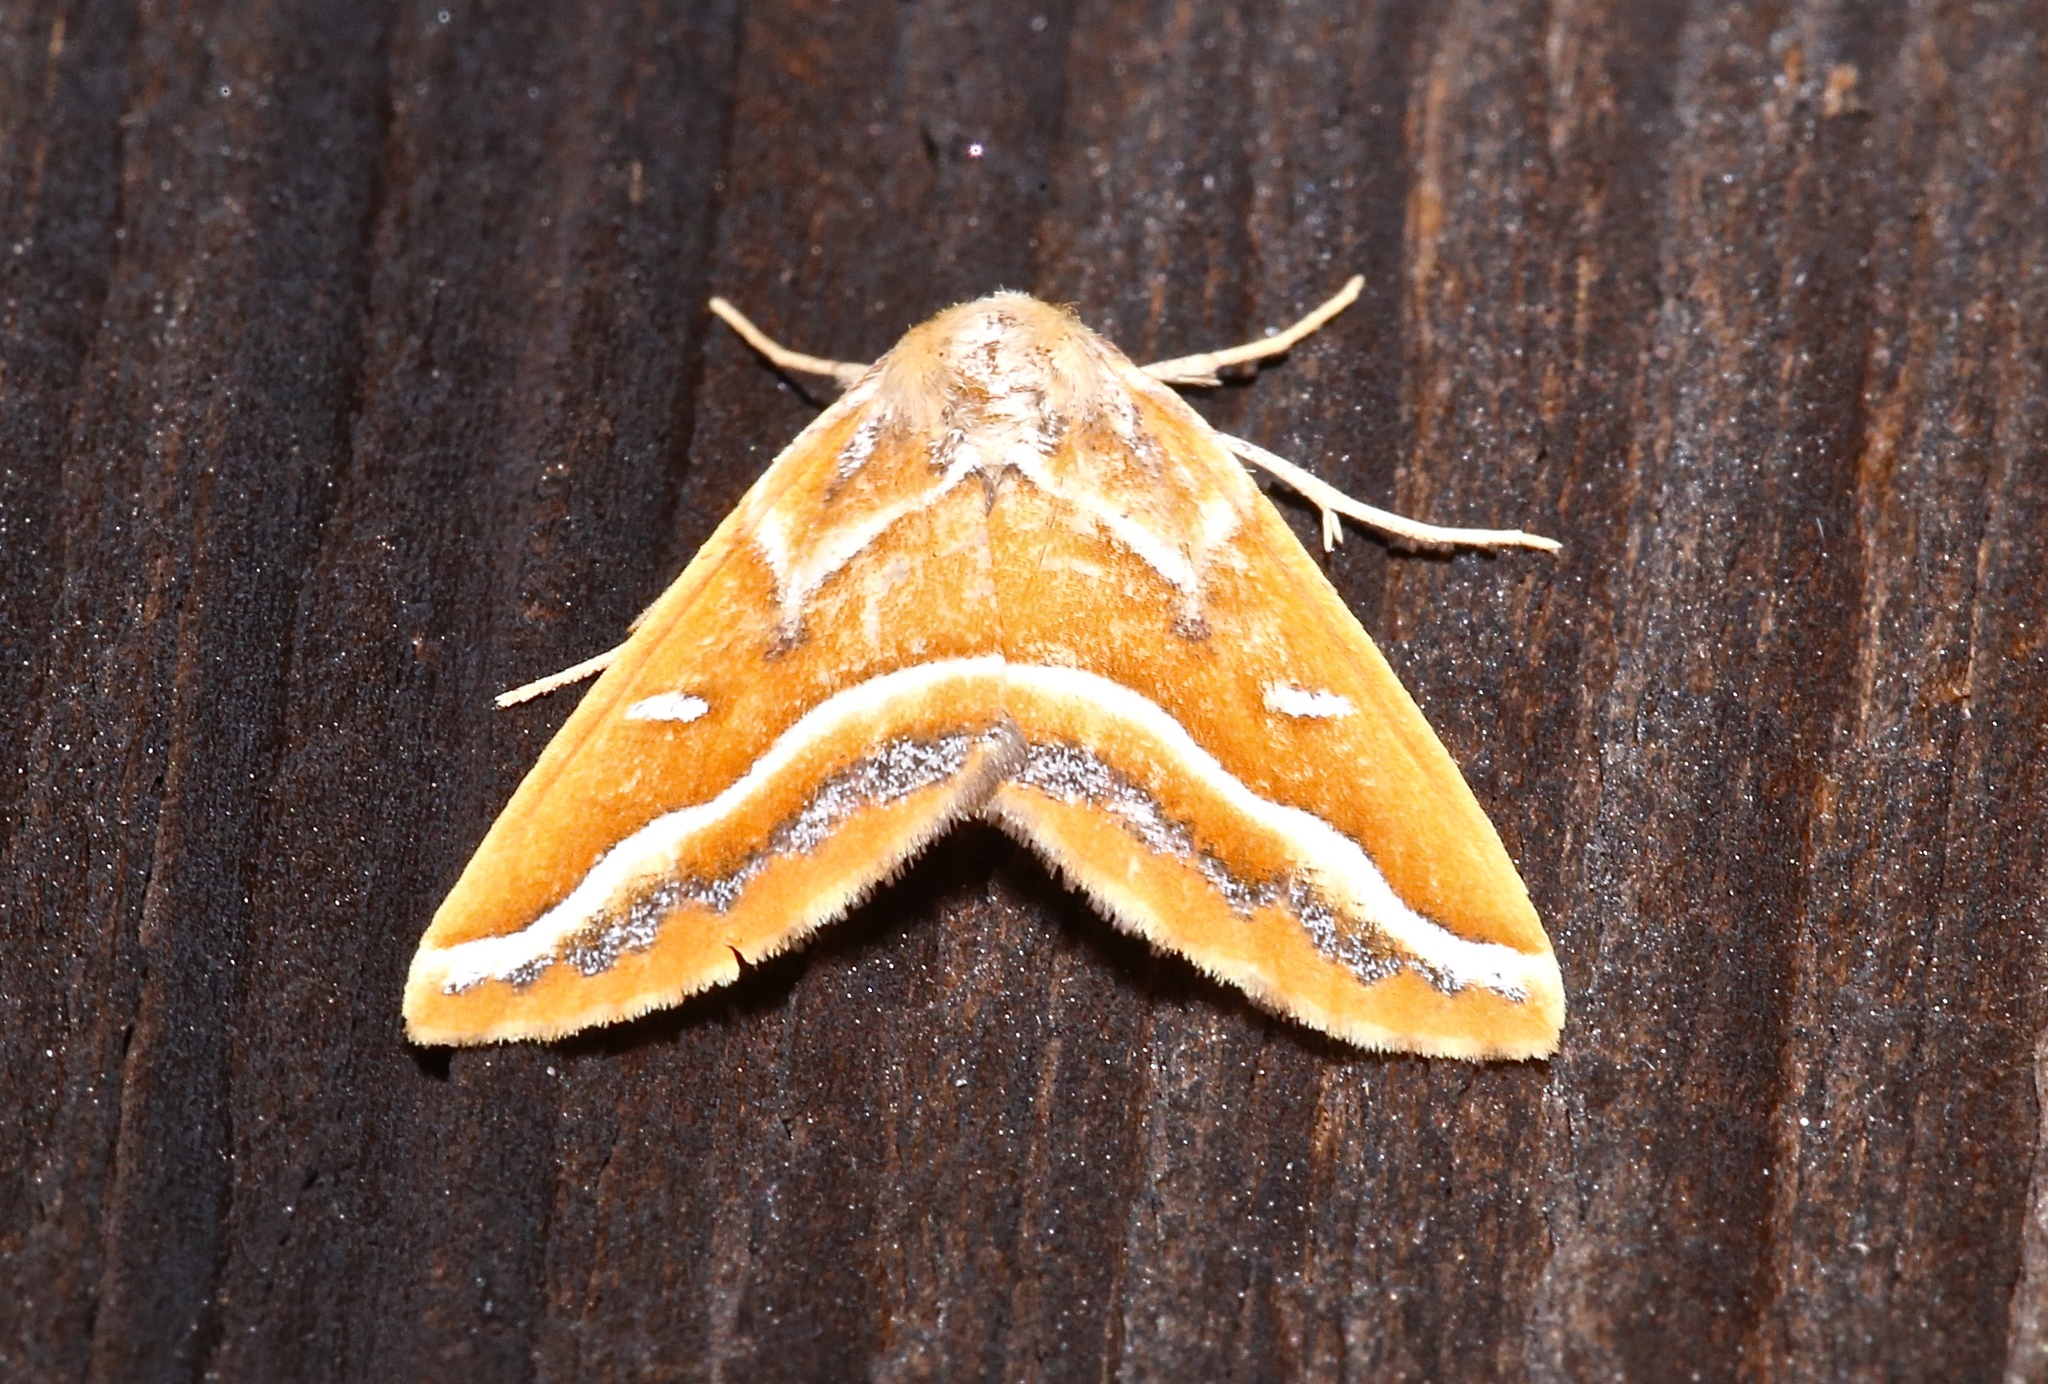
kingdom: Animalia
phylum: Arthropoda
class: Insecta
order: Lepidoptera
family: Geometridae
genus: Caripeta
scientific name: Caripeta angustiorata
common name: Brown pine looper
